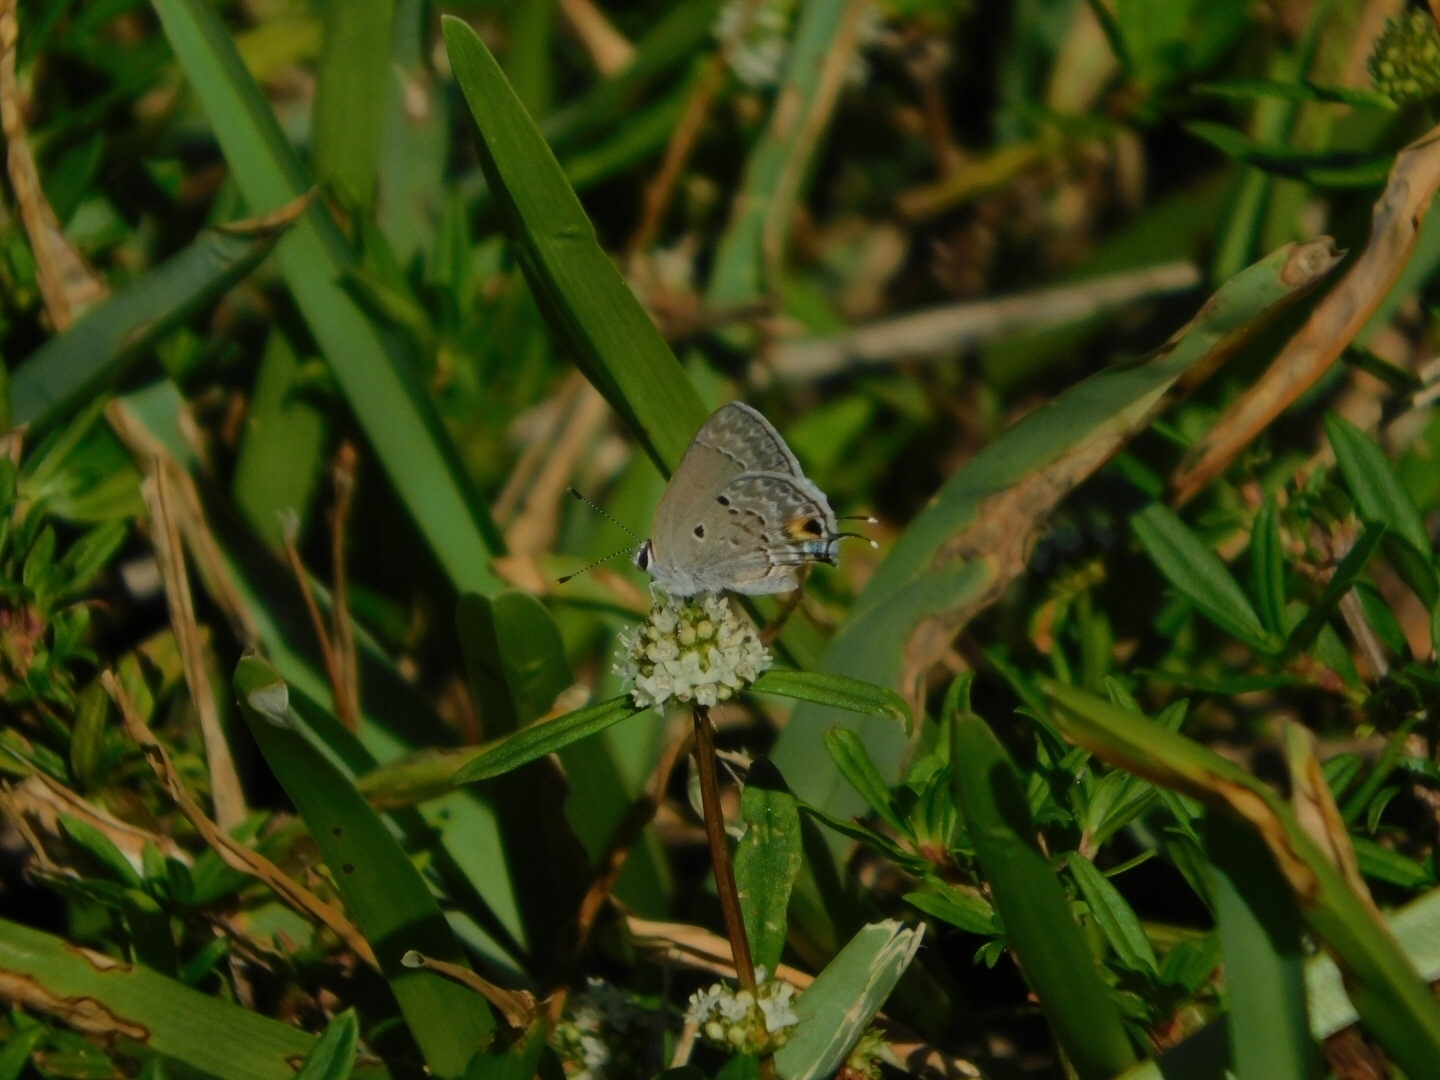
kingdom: Animalia
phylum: Arthropoda
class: Insecta
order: Lepidoptera
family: Lycaenidae
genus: Callicista
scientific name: Callicista columella
